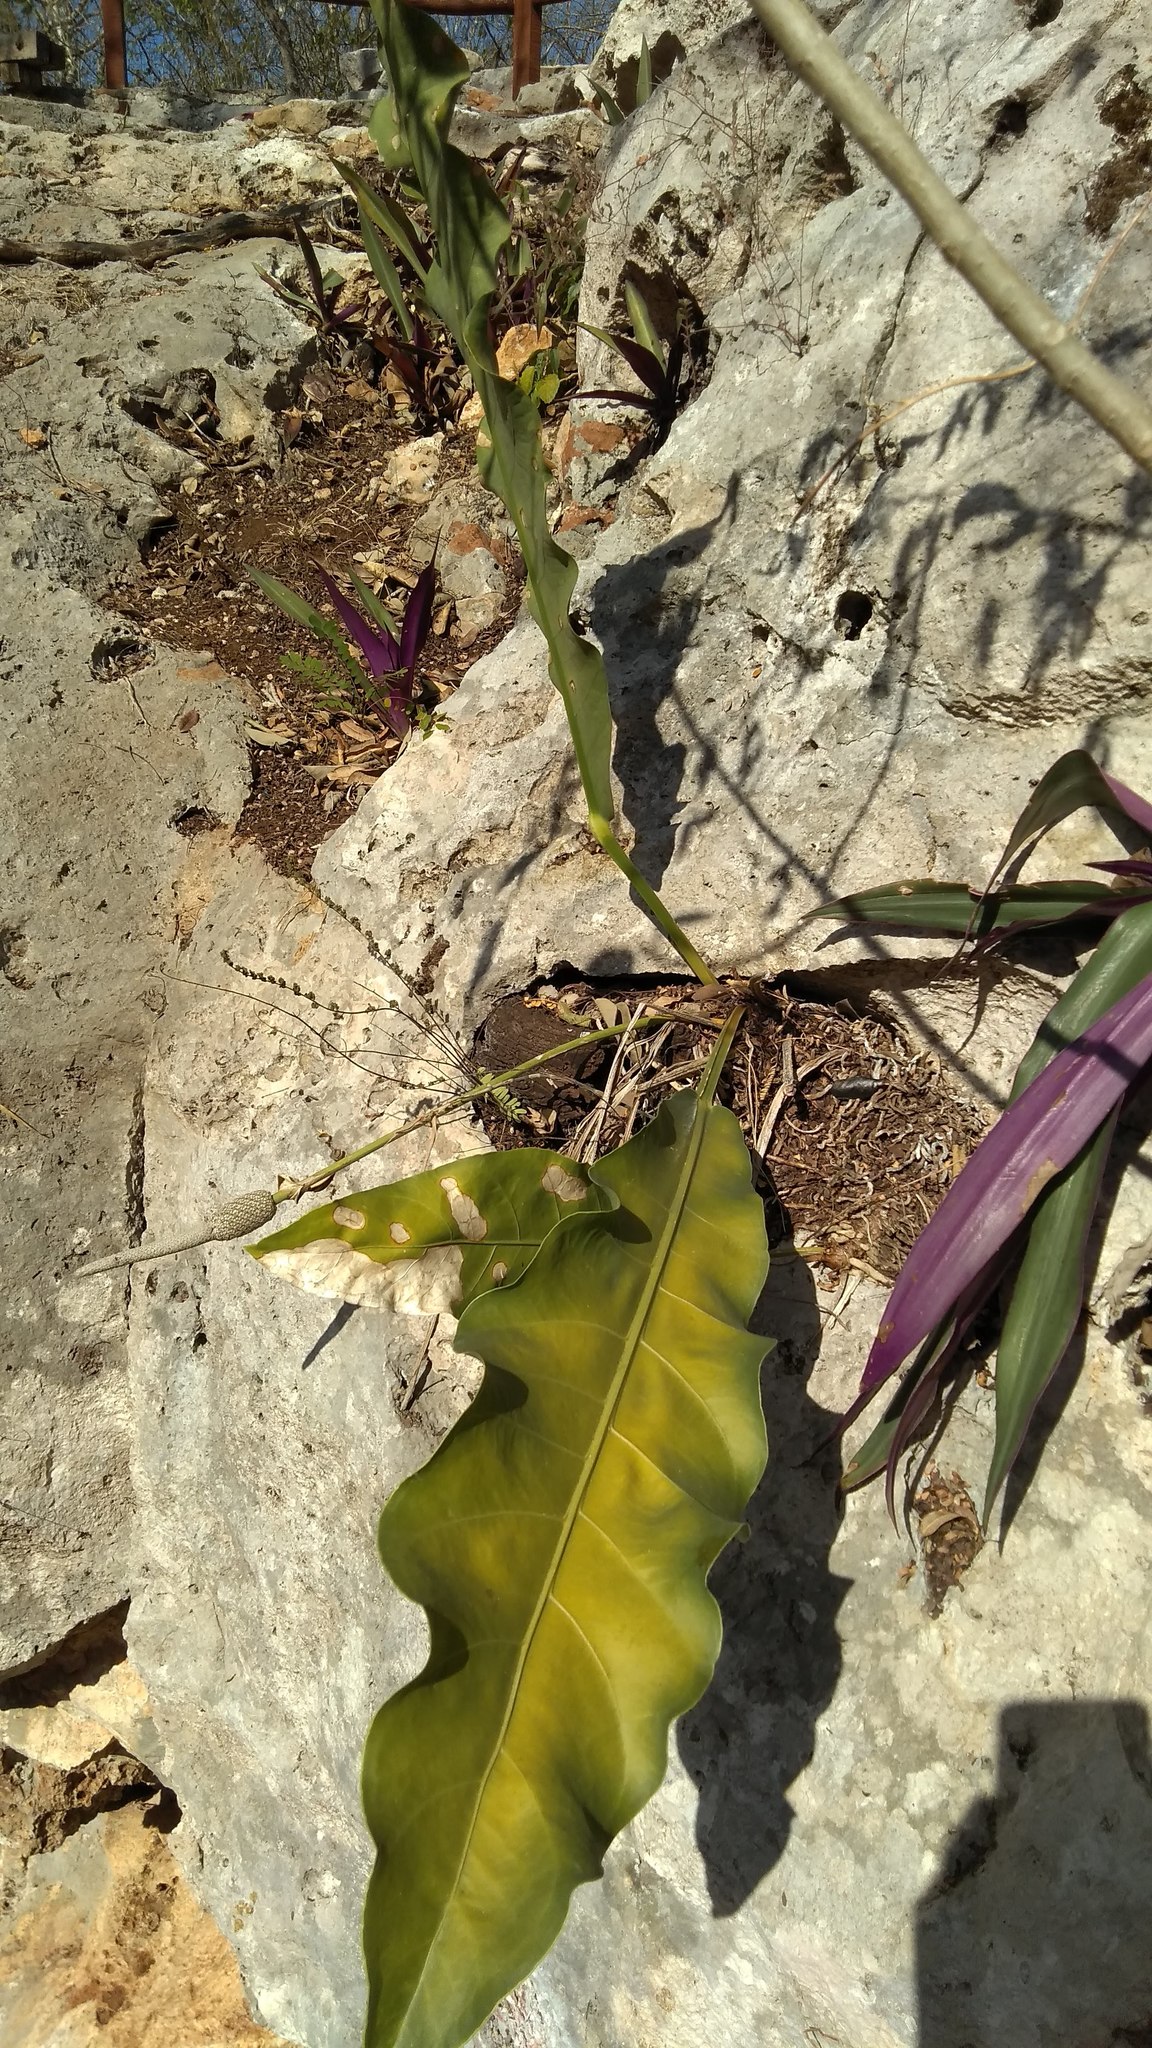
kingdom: Plantae
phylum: Tracheophyta
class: Liliopsida
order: Alismatales
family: Araceae
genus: Anthurium
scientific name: Anthurium schlechtendalii
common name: Laceleaf
